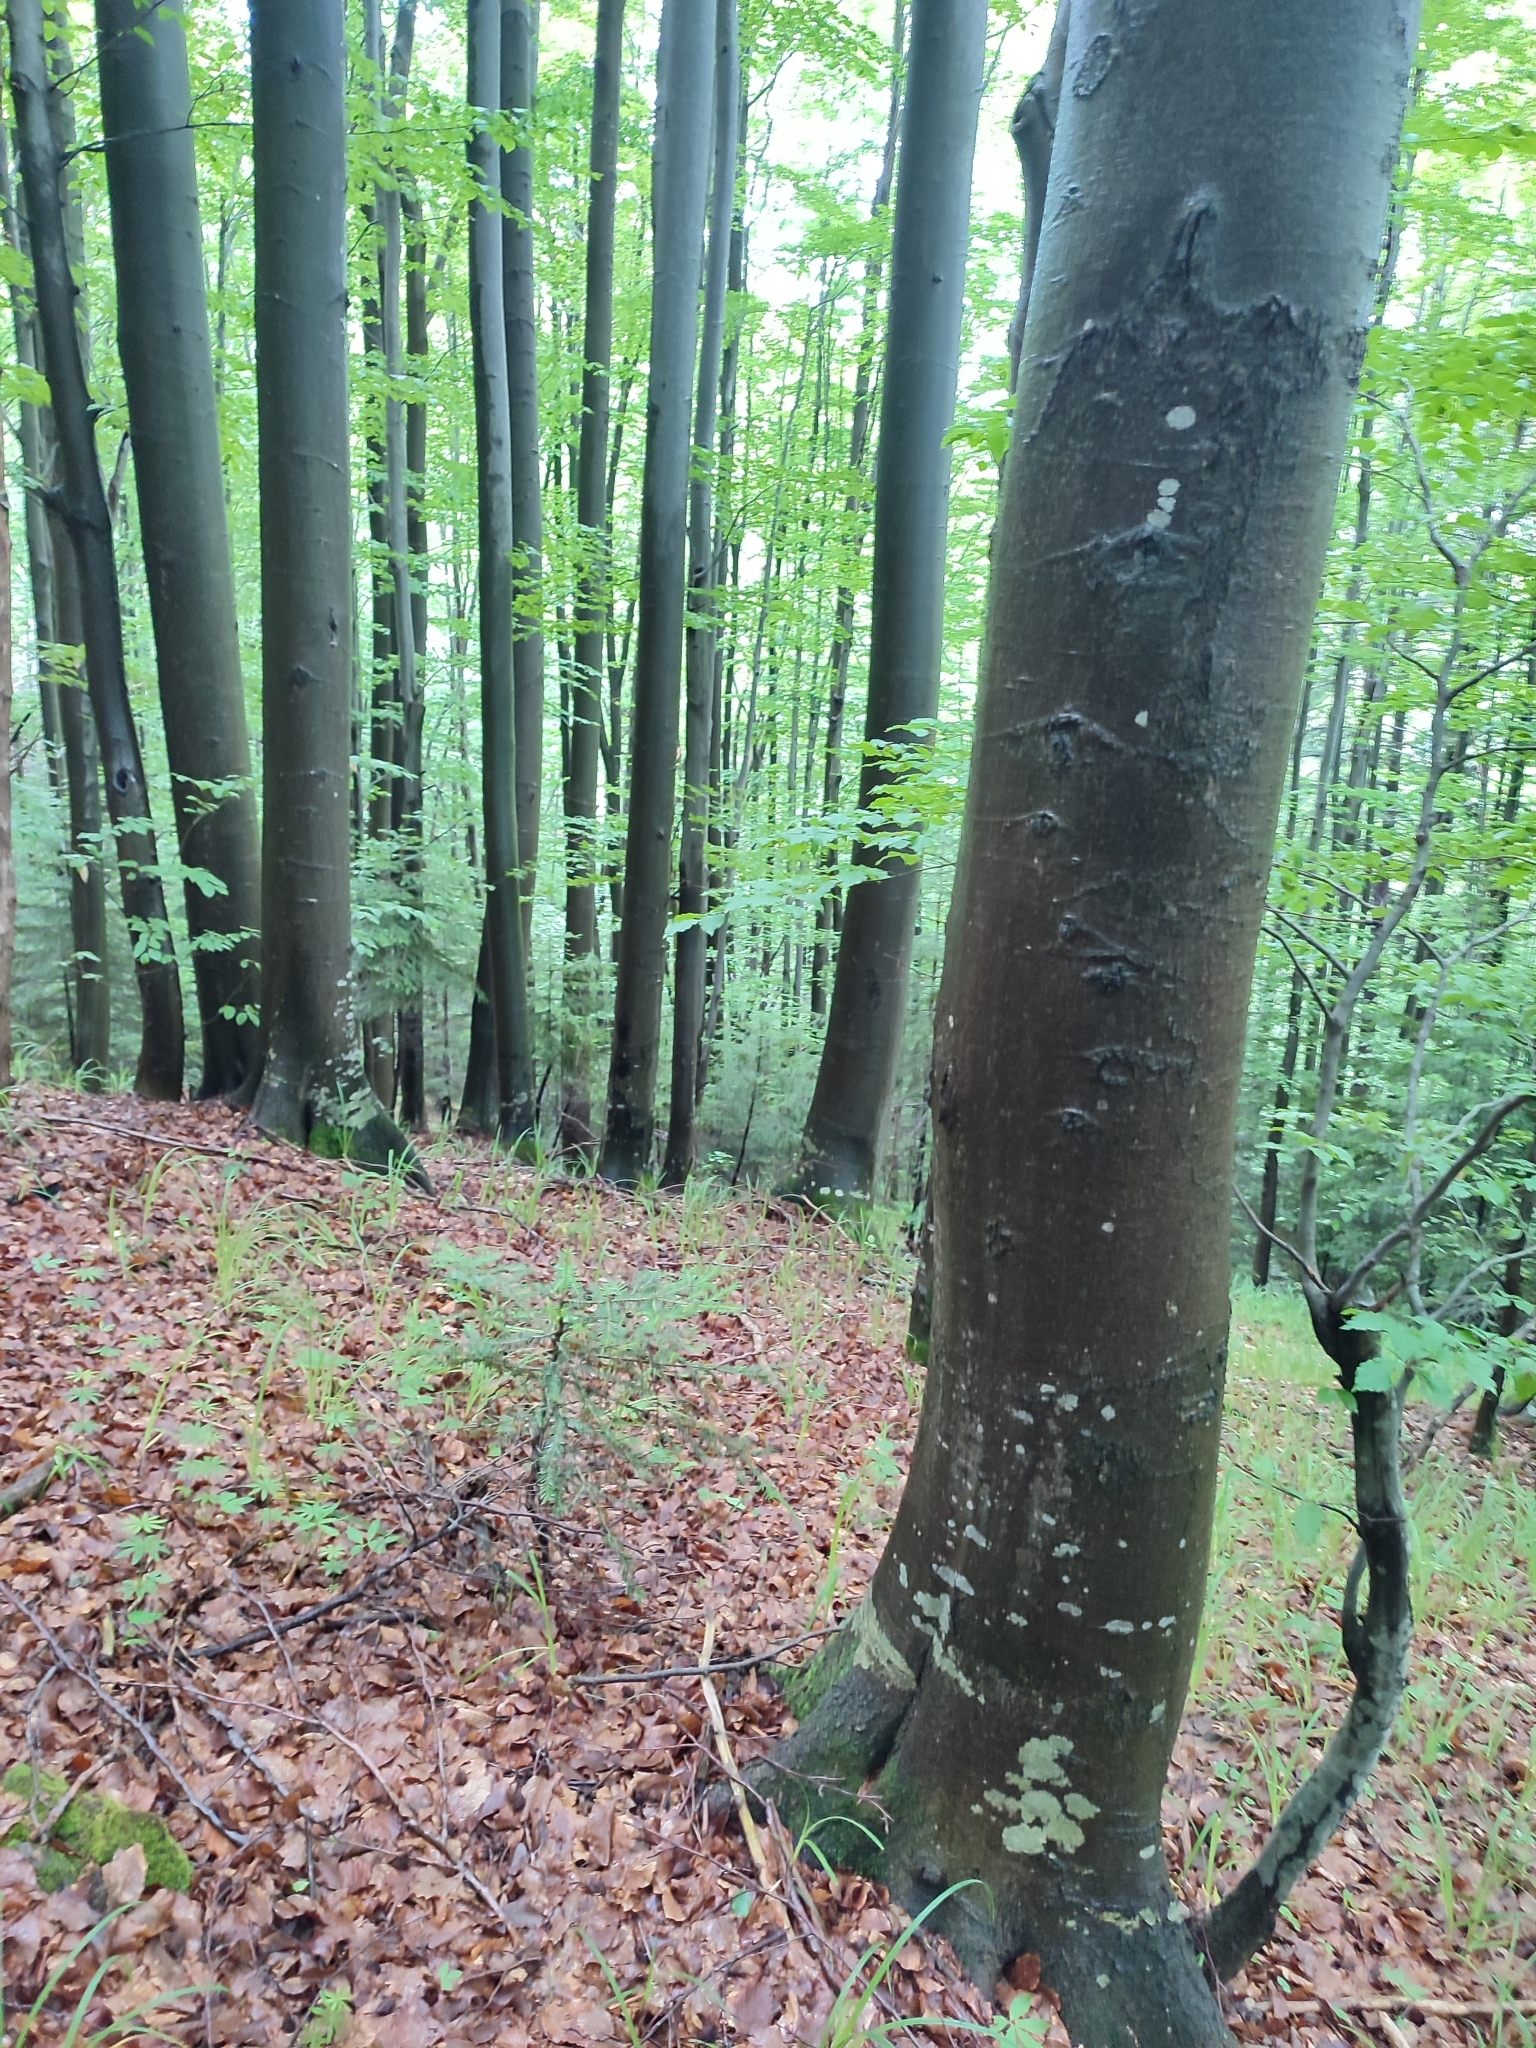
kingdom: Plantae
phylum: Tracheophyta
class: Magnoliopsida
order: Fagales
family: Fagaceae
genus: Fagus
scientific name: Fagus sylvatica
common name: Beech
